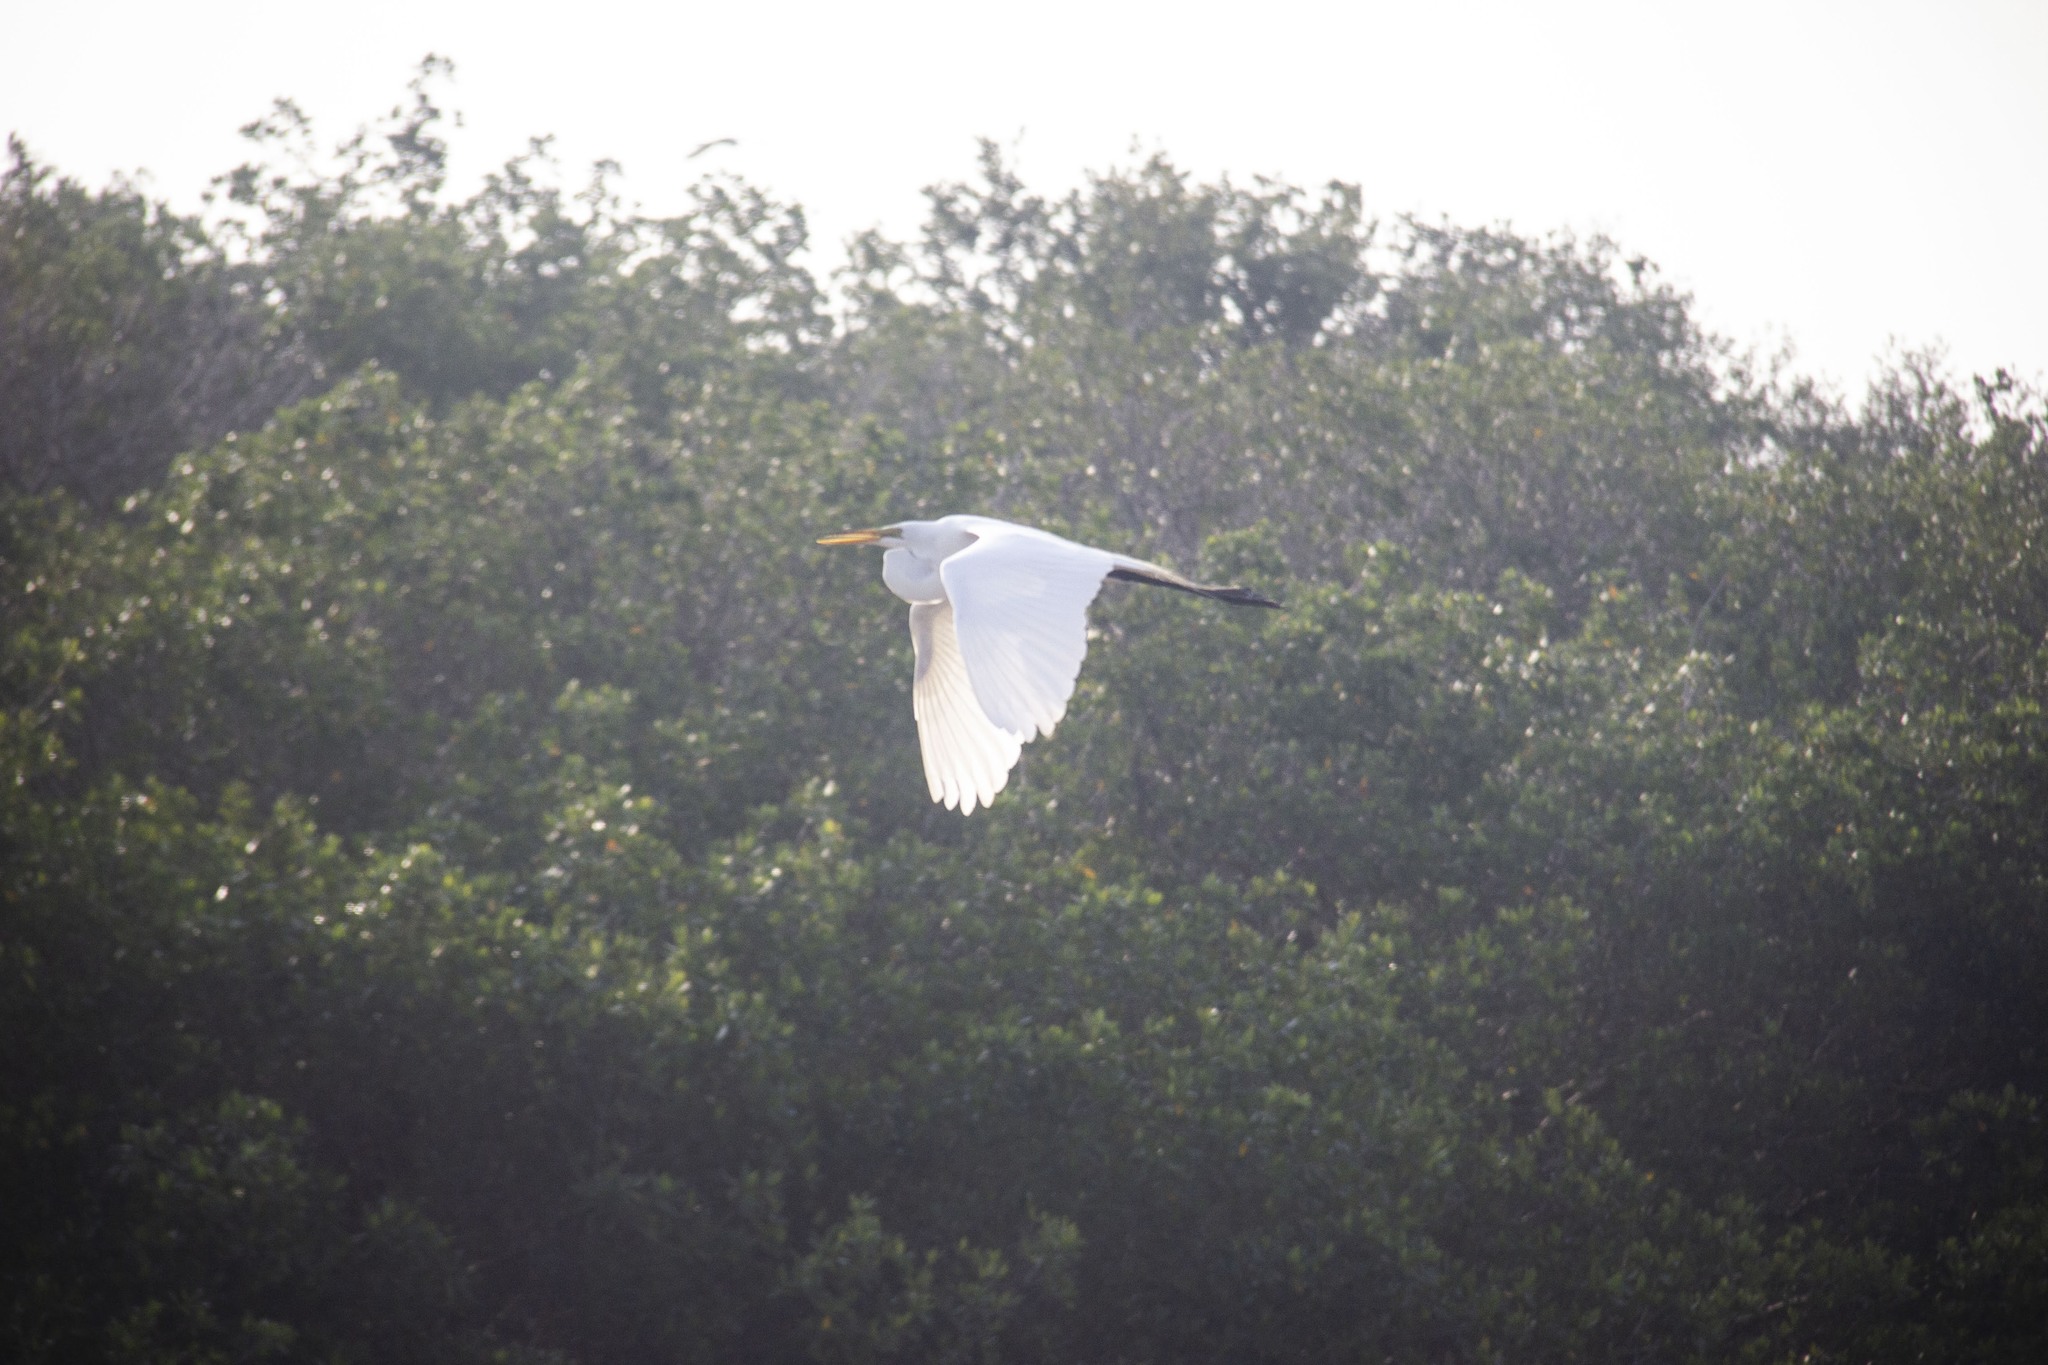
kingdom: Animalia
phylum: Chordata
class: Aves
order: Pelecaniformes
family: Ardeidae
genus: Ardea
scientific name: Ardea alba
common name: Great egret
